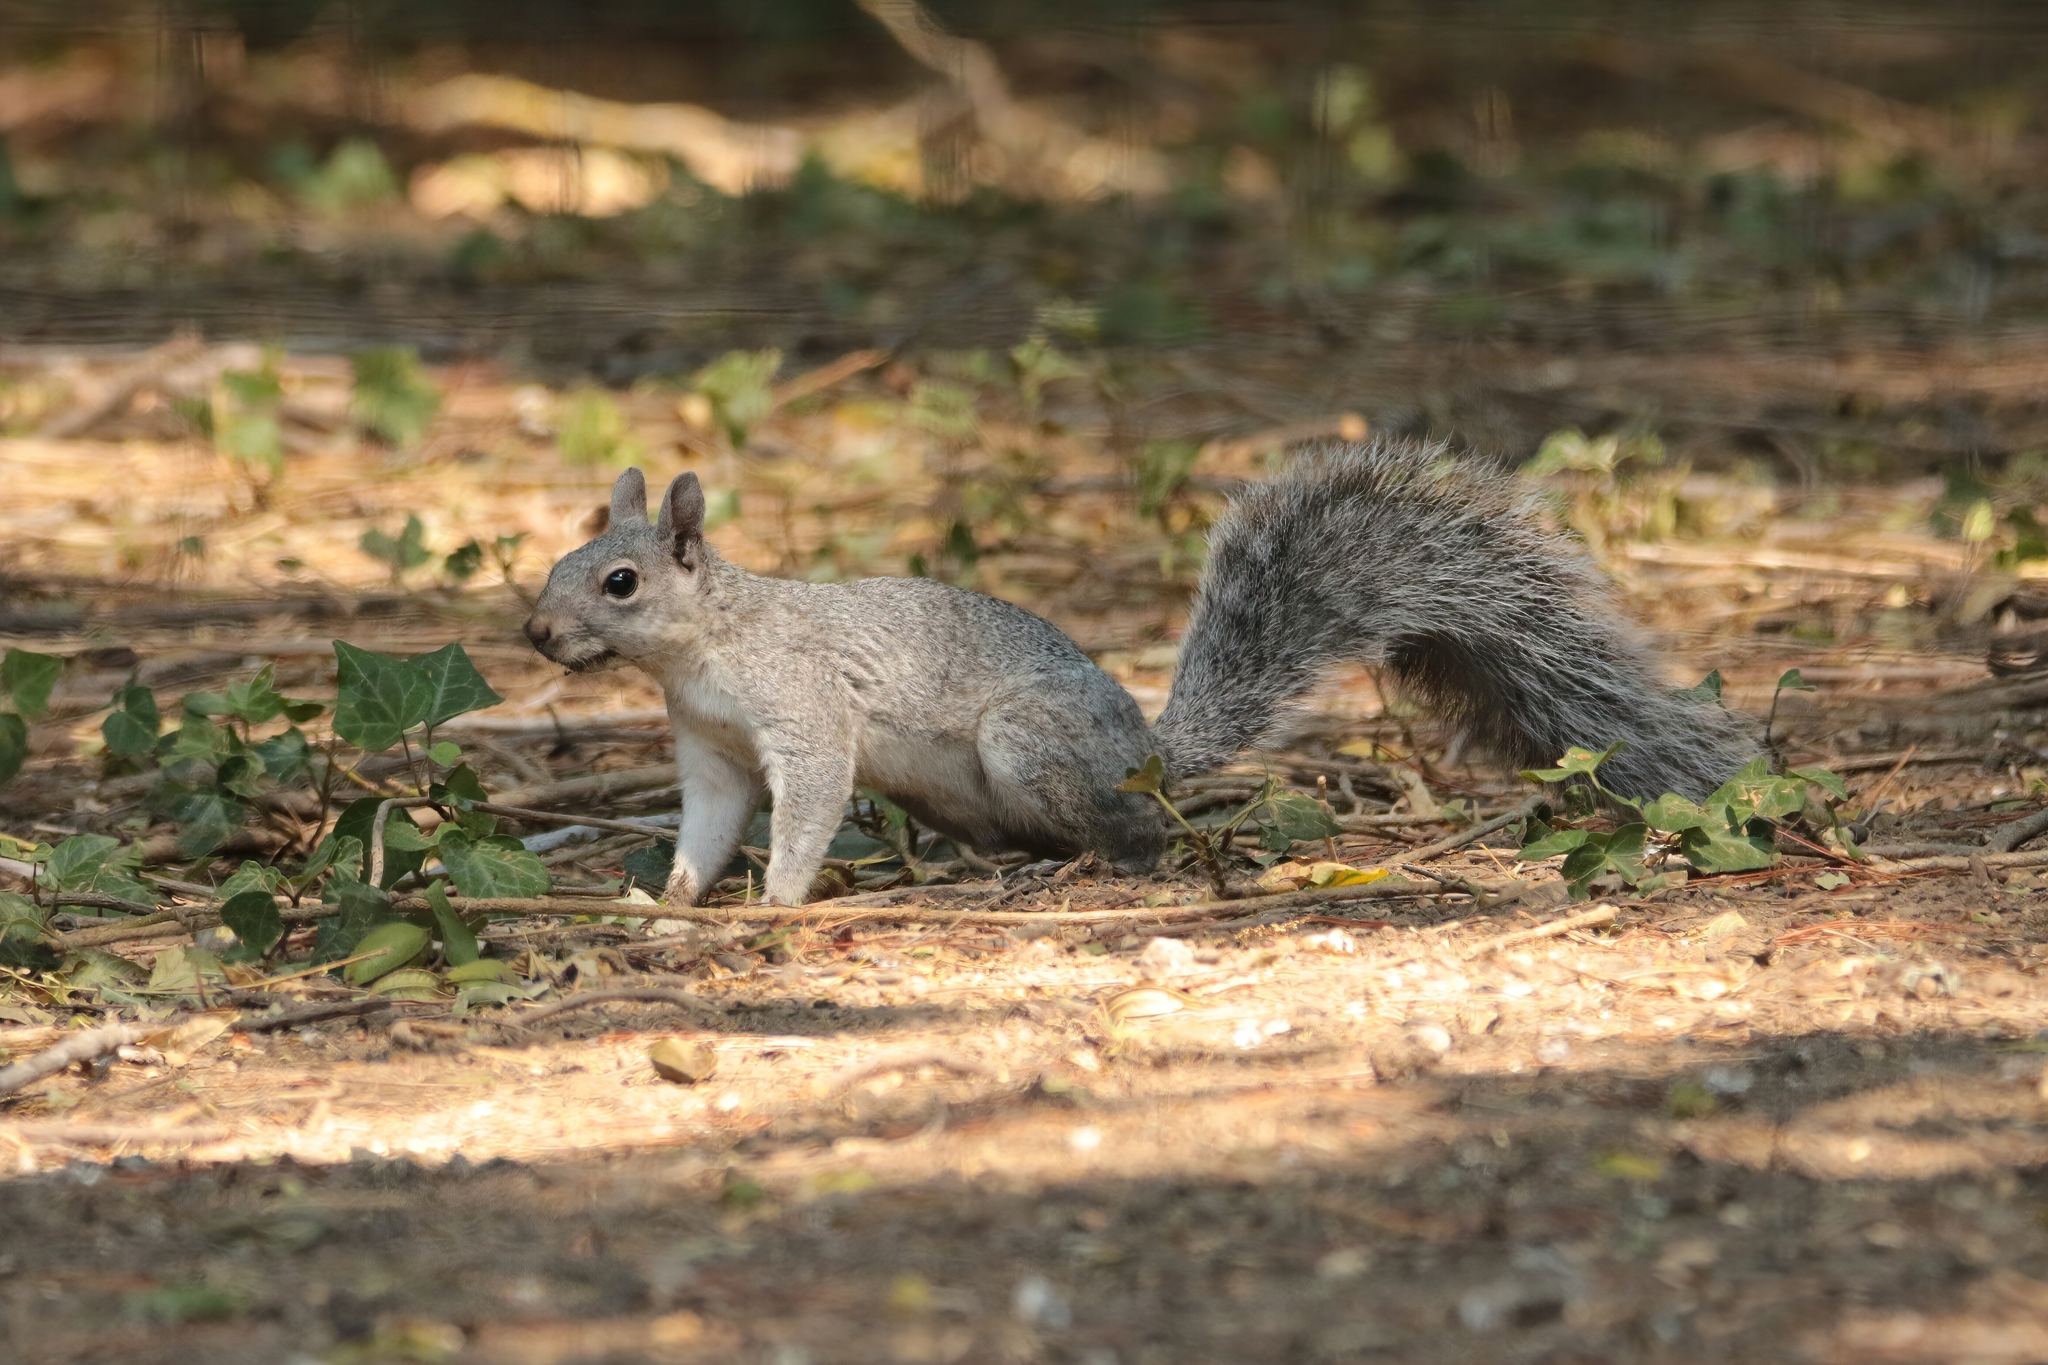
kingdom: Animalia
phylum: Chordata
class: Mammalia
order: Rodentia
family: Sciuridae
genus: Sciurus
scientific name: Sciurus griseus
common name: Western gray squirrel
